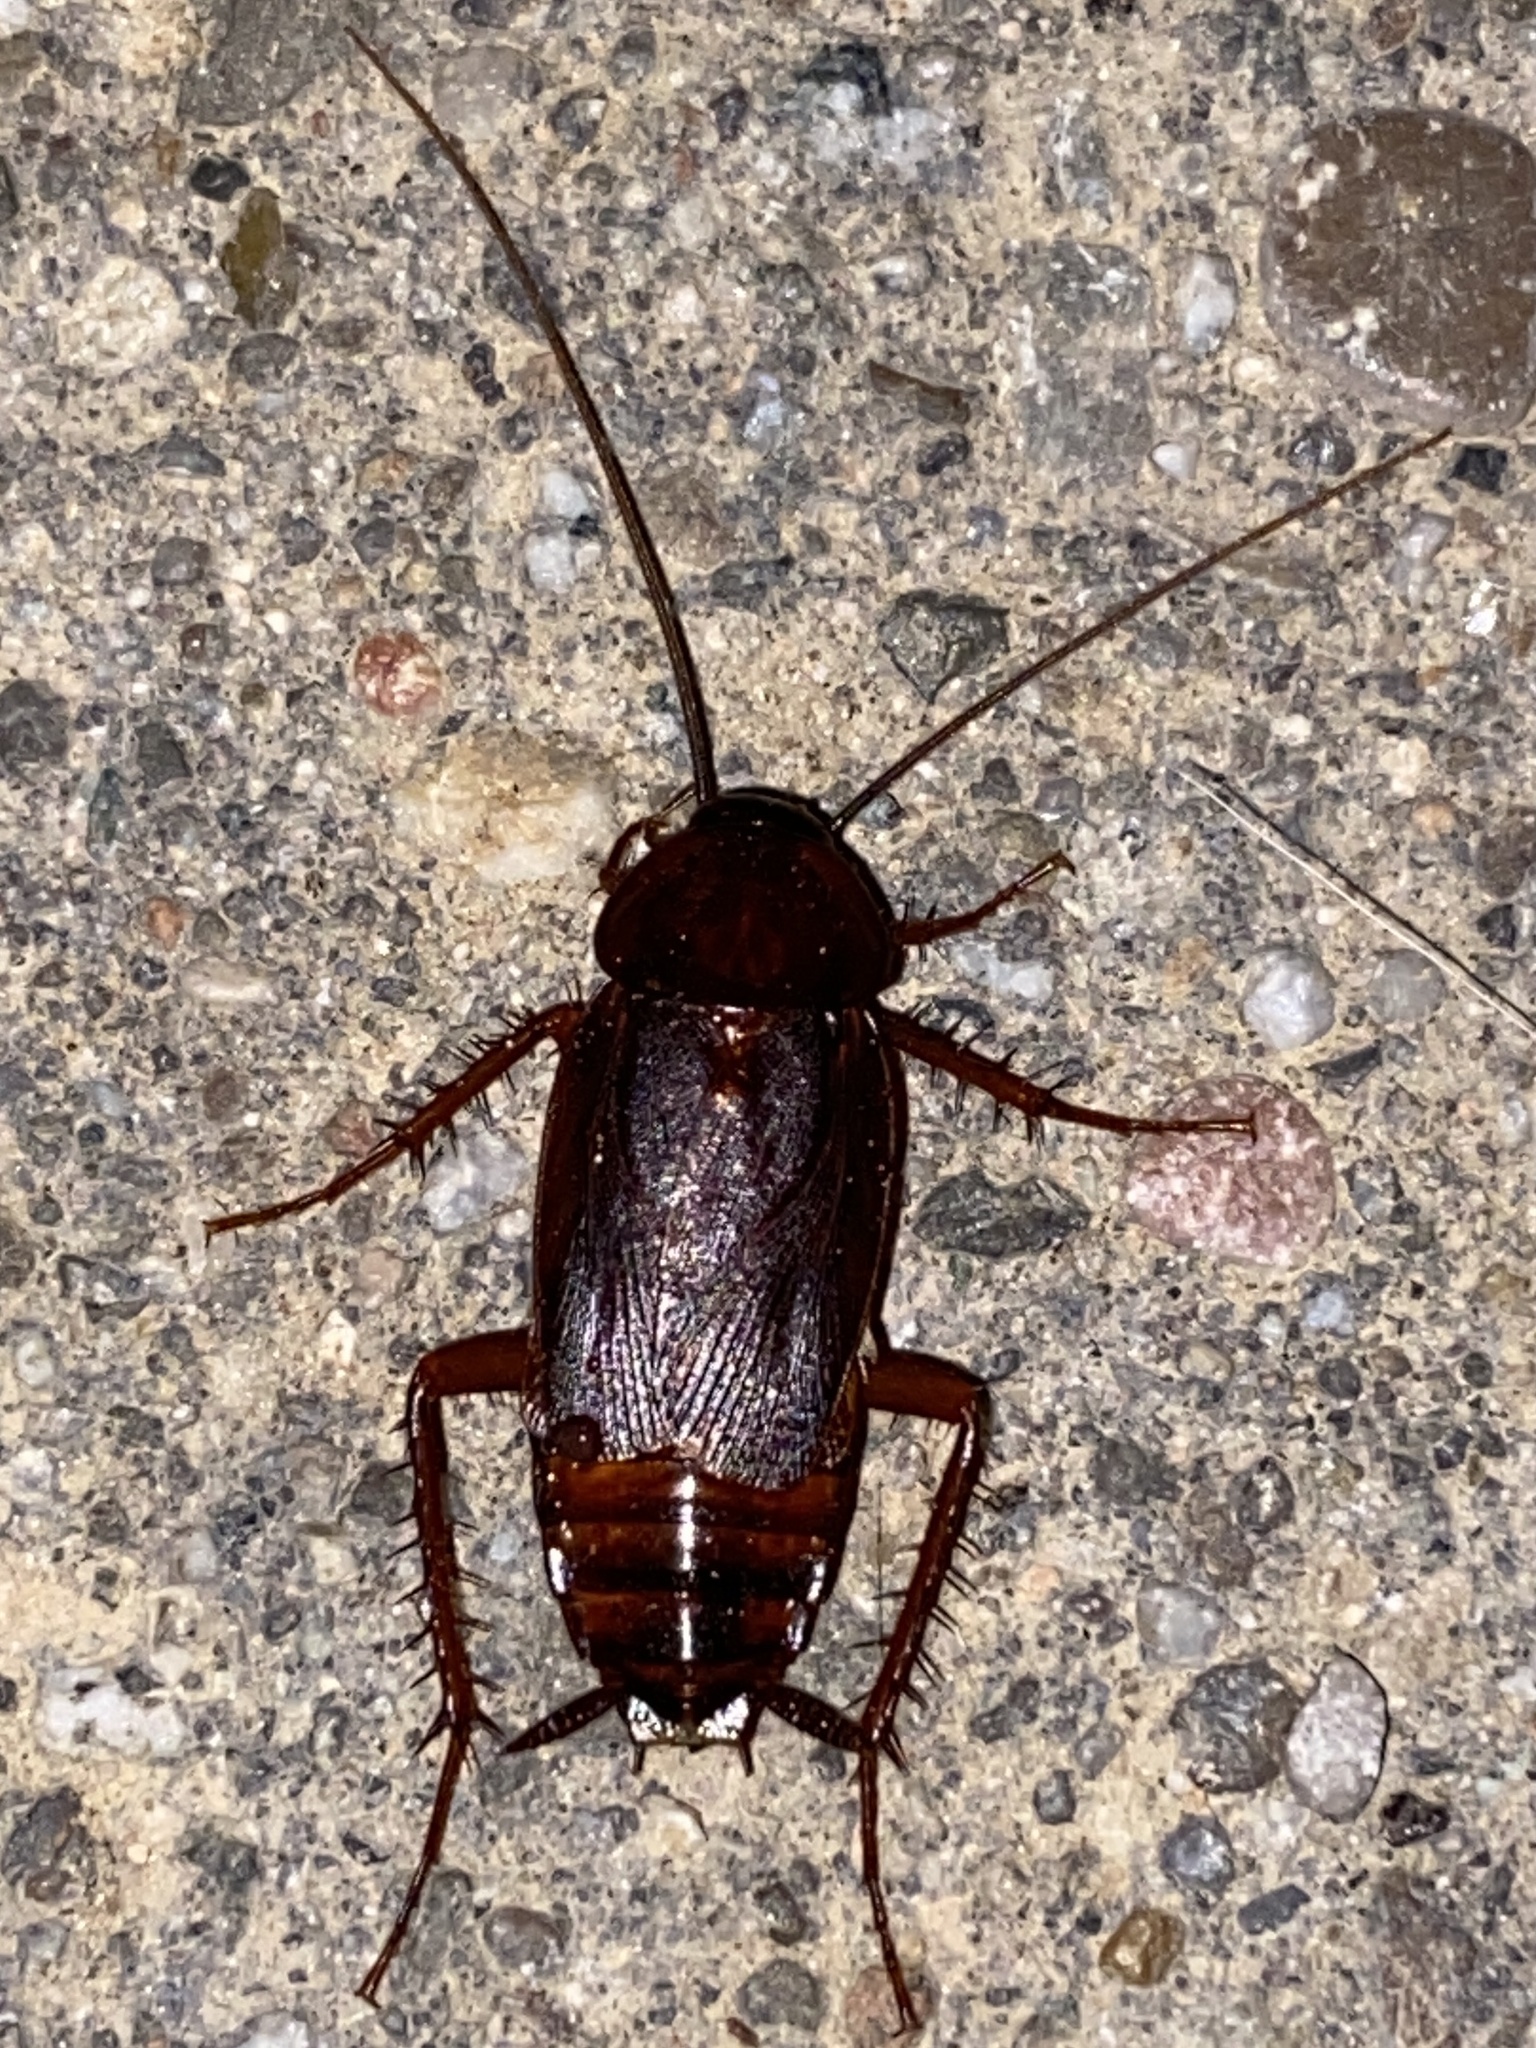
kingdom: Animalia
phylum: Arthropoda
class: Insecta
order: Blattodea
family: Blattidae
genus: Blatta
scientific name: Blatta orientalis
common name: Oriental cockroach
